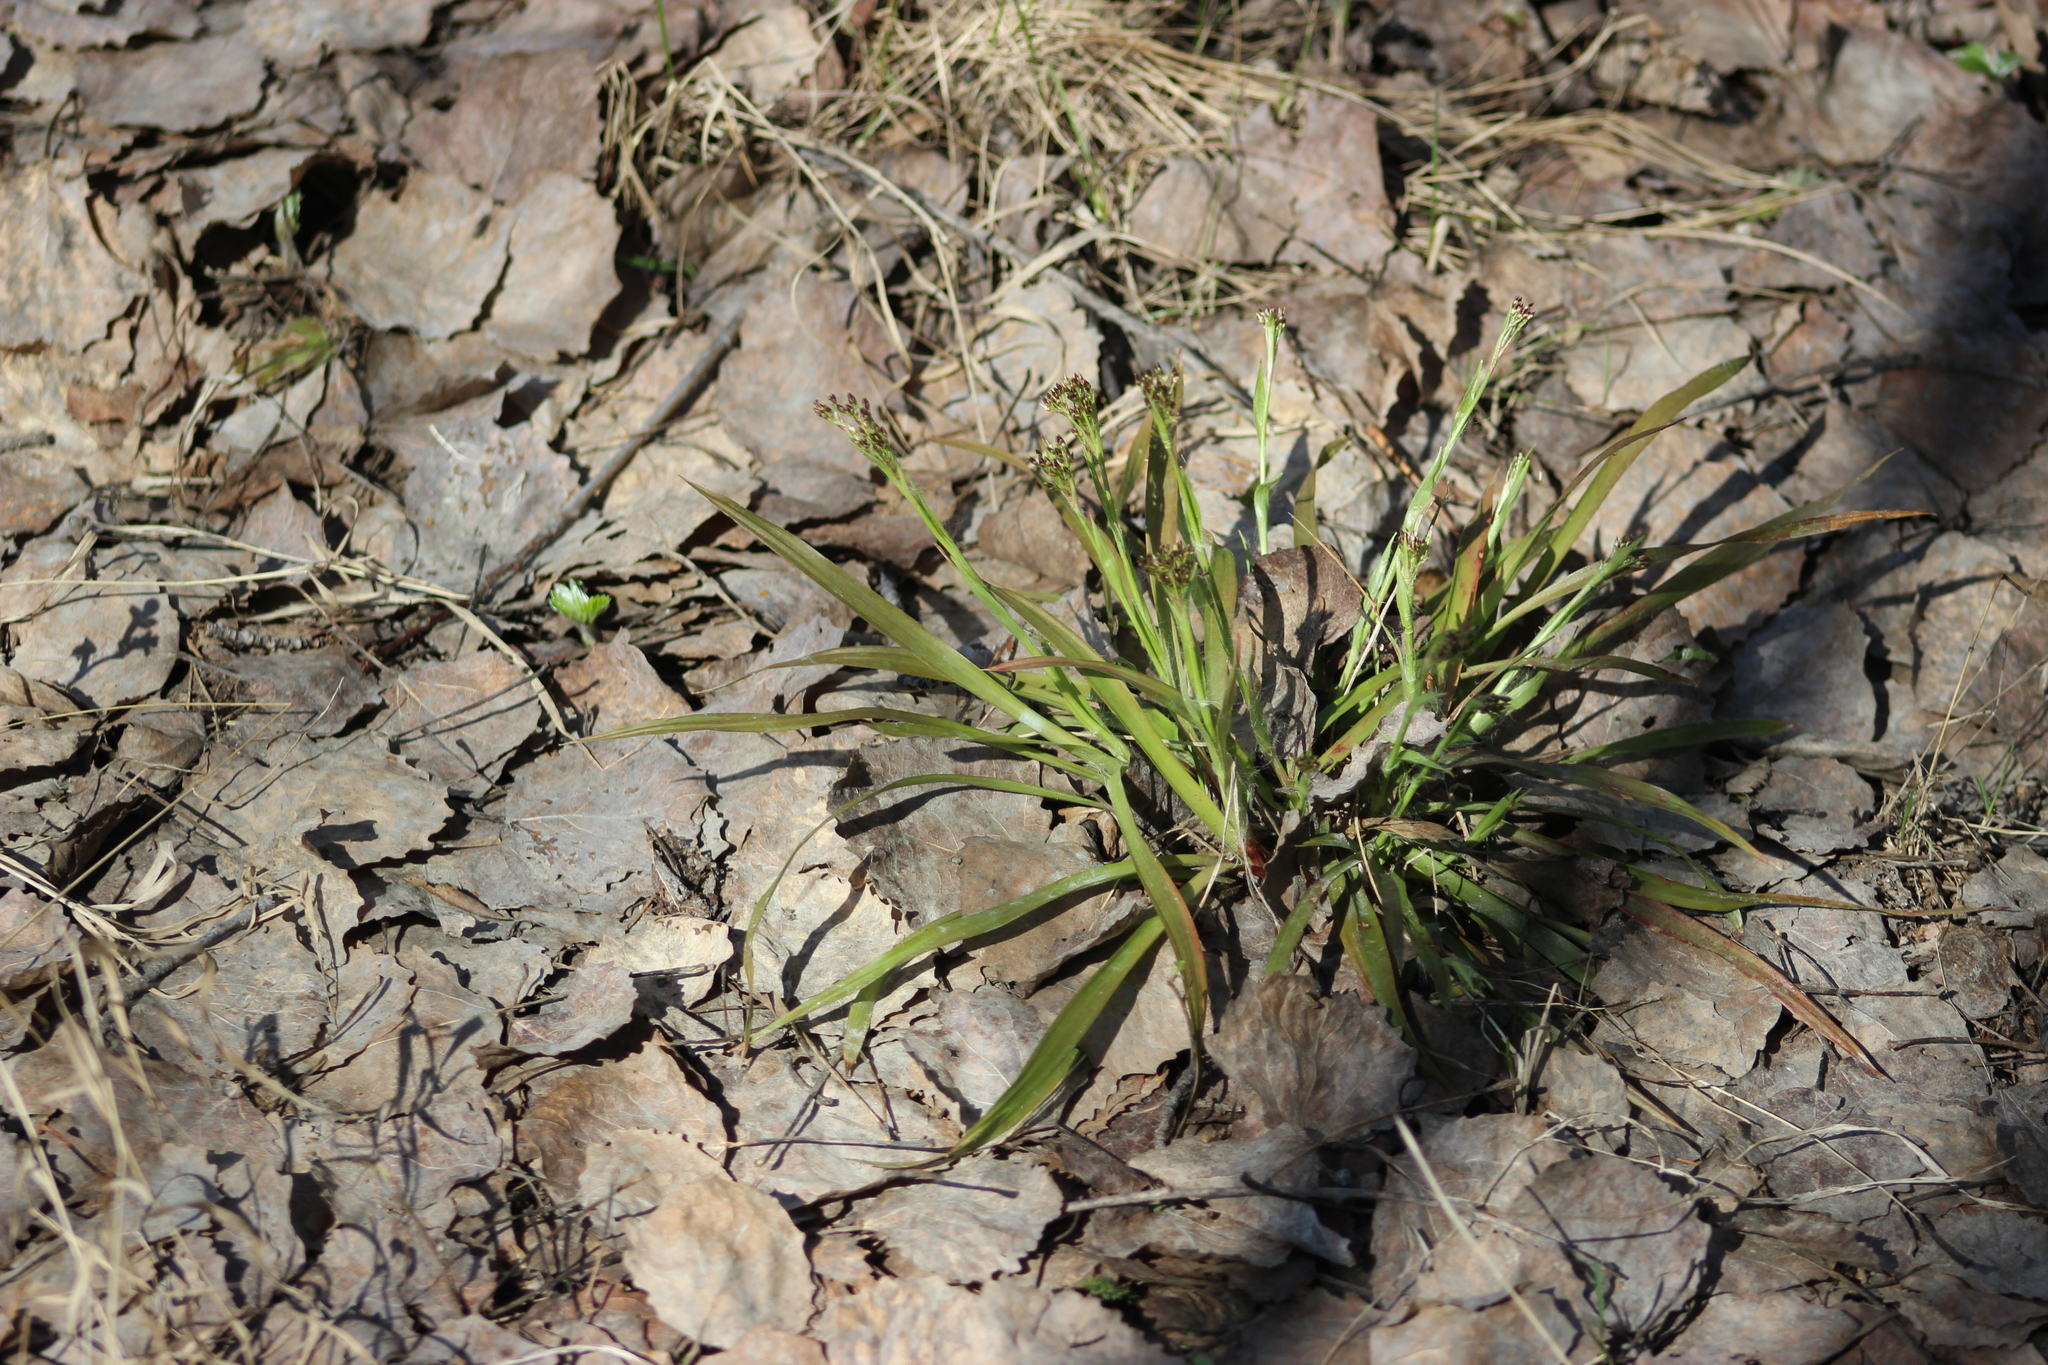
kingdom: Plantae
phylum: Tracheophyta
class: Liliopsida
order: Poales
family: Juncaceae
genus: Luzula
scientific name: Luzula pilosa
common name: Hairy wood-rush
